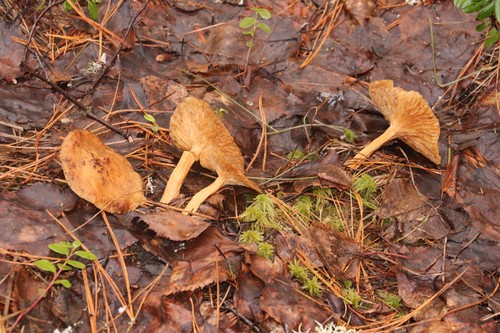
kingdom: Fungi
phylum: Basidiomycota
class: Agaricomycetes
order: Russulales
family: Russulaceae
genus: Lactarius
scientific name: Lactarius helvus
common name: Fenugreek milkcap
